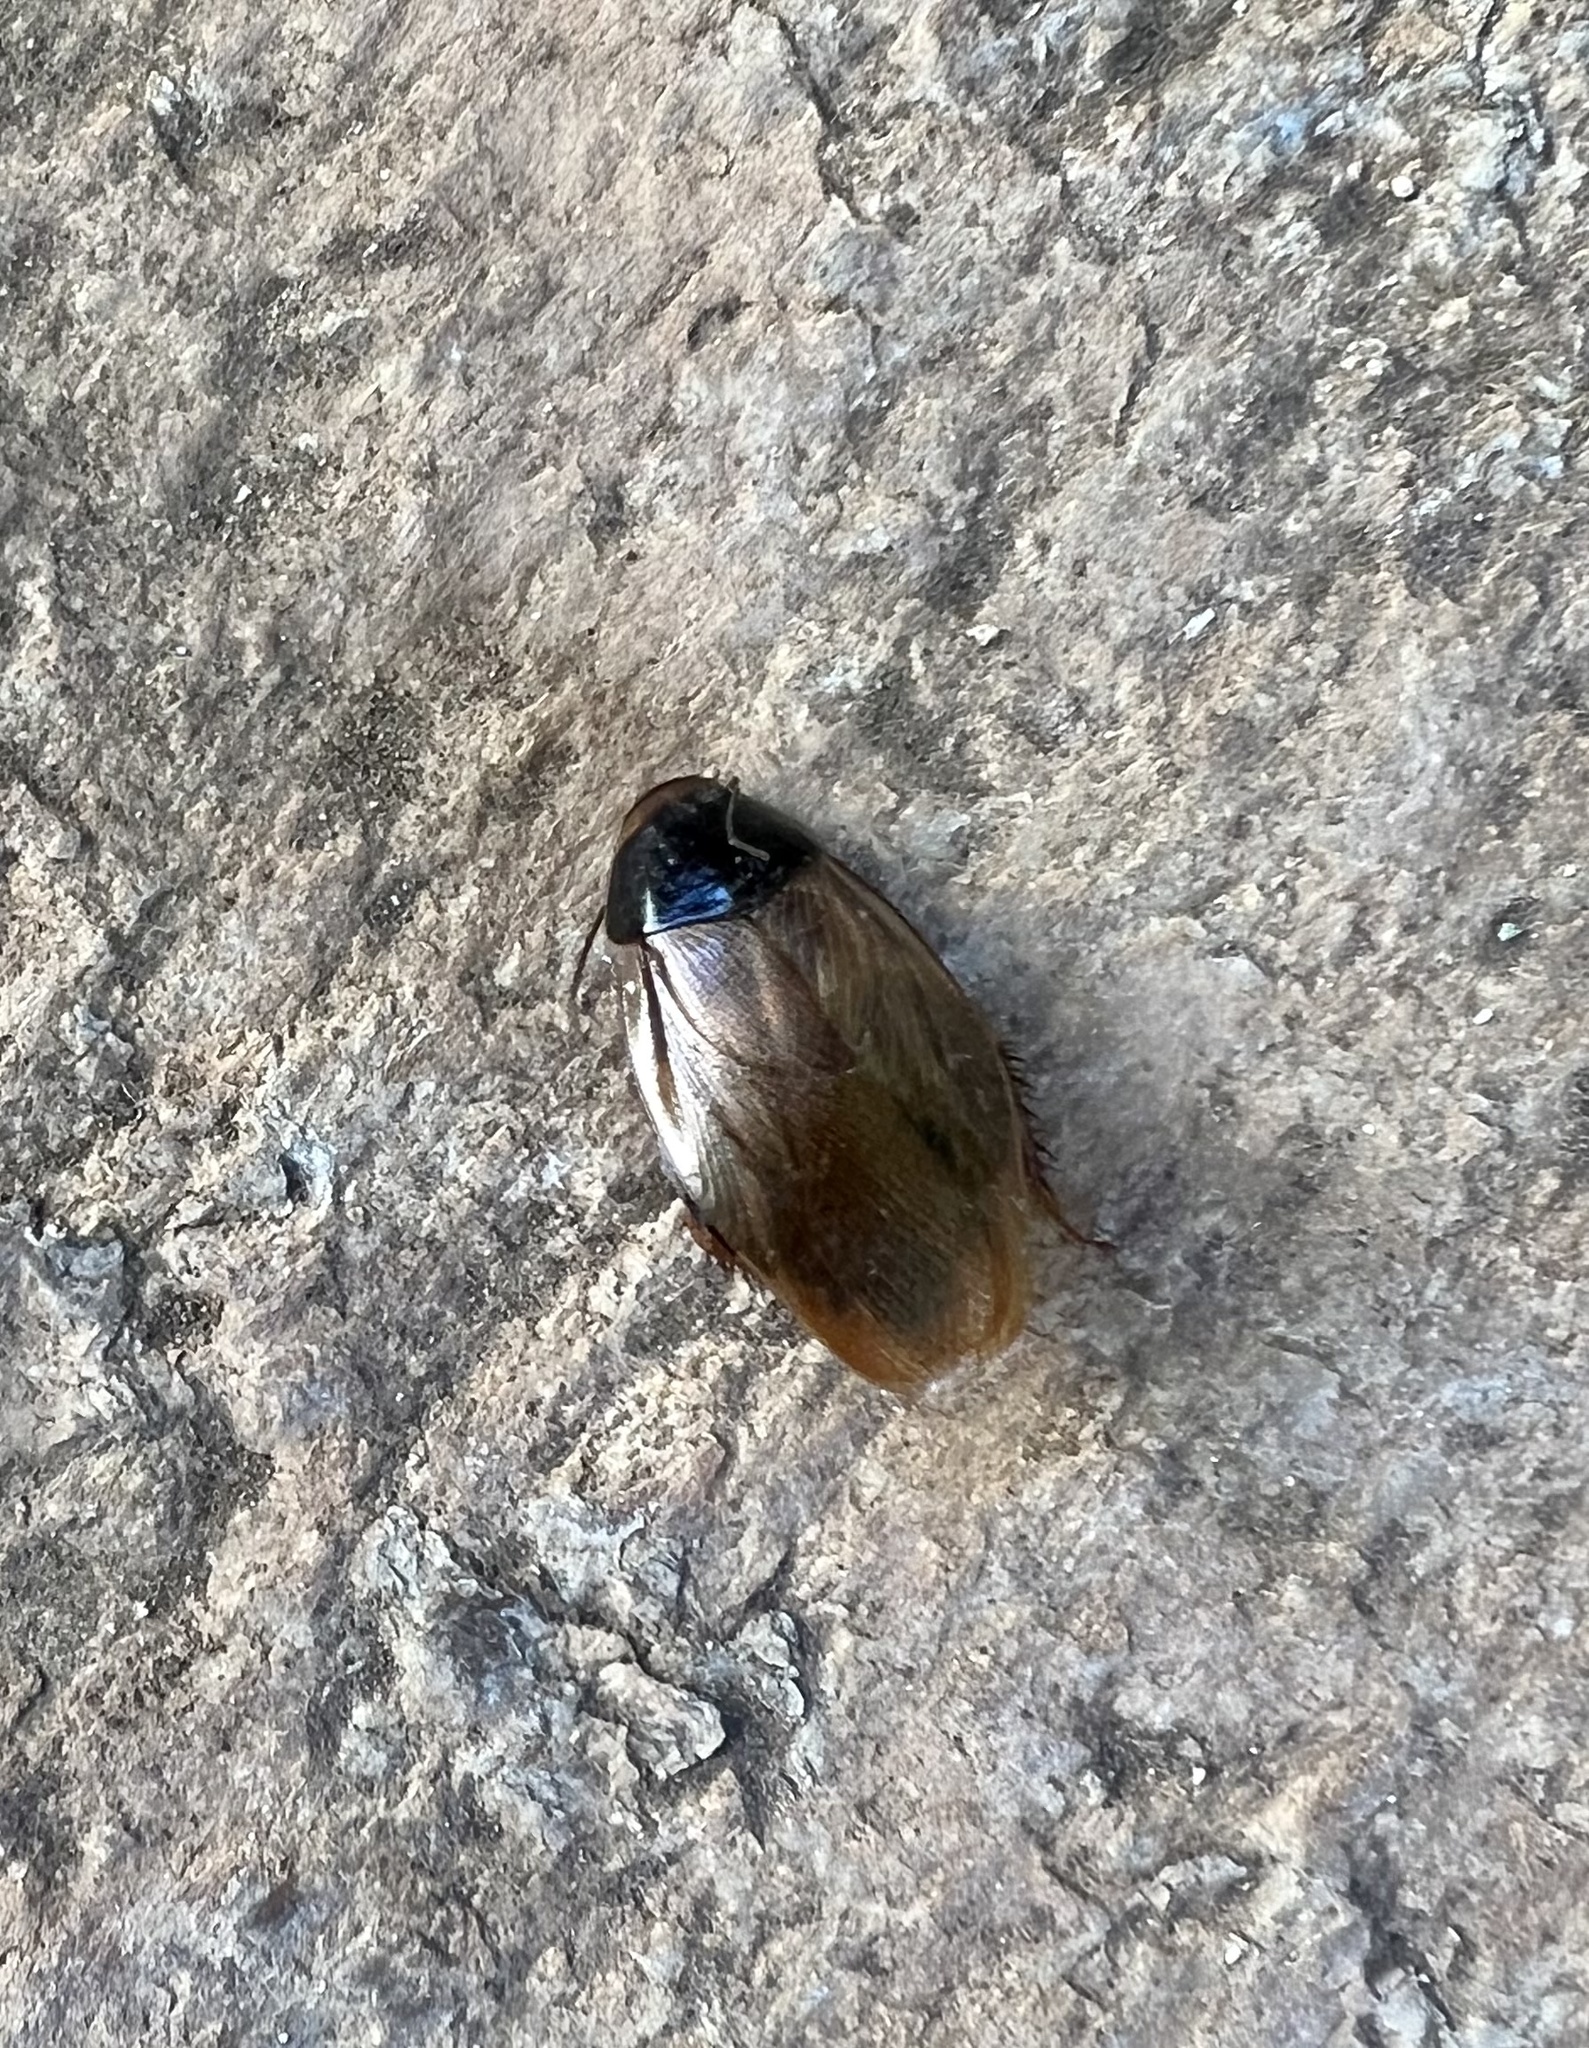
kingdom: Animalia
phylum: Arthropoda
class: Insecta
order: Blattodea
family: Blaberidae
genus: Pycnoscelus
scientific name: Pycnoscelus surinamensis
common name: Surinam cockroach
